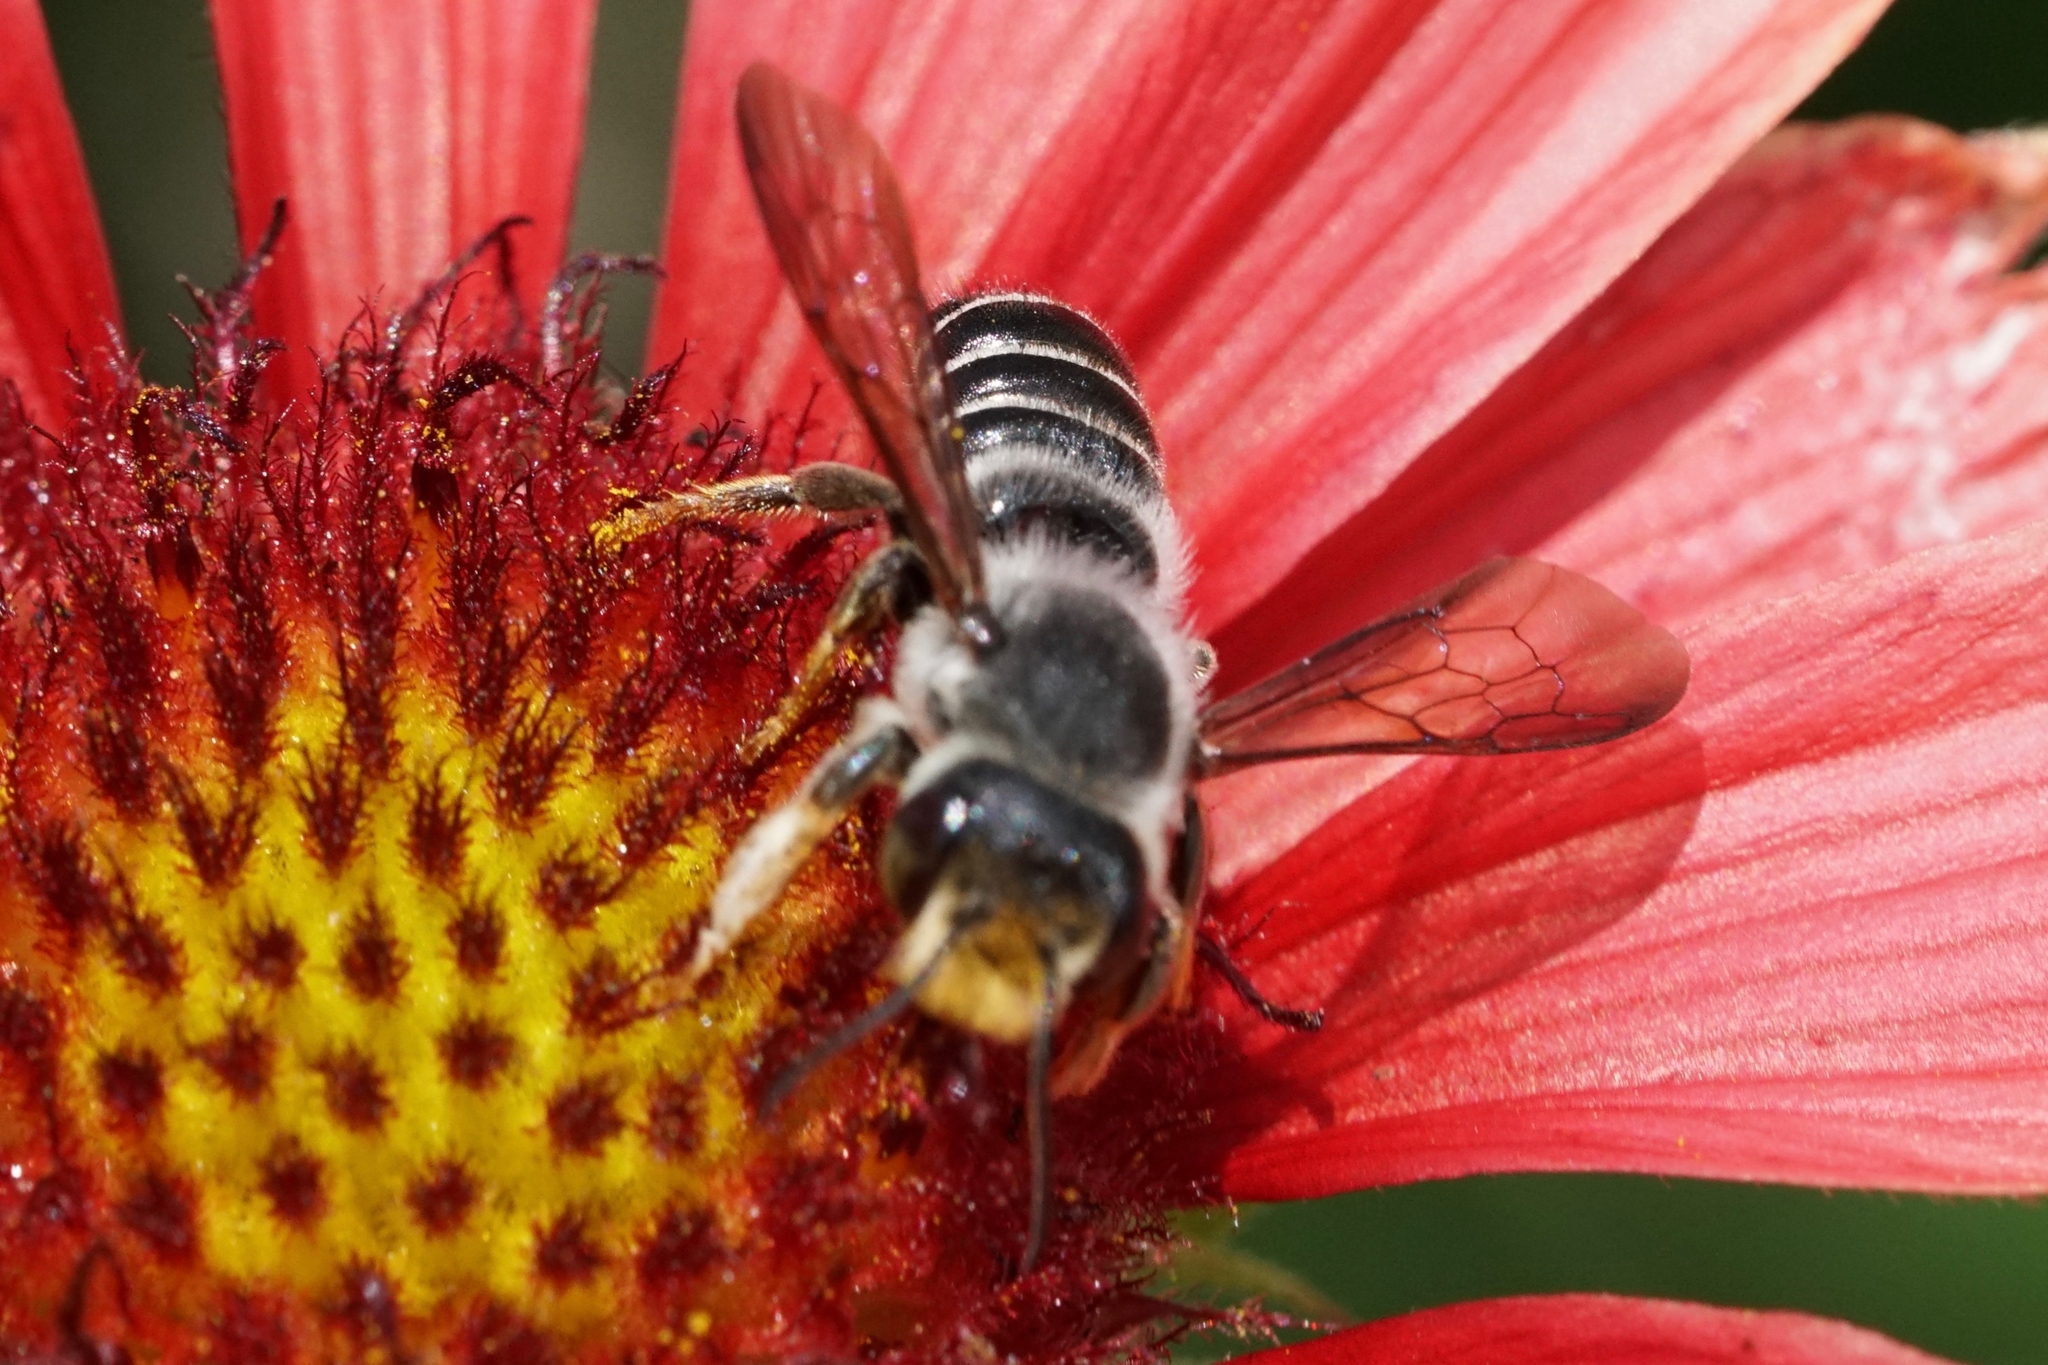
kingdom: Animalia
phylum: Arthropoda
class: Insecta
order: Hymenoptera
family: Megachilidae
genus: Megachile
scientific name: Megachile pugnata
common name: Pugnacious leafcutter bee
